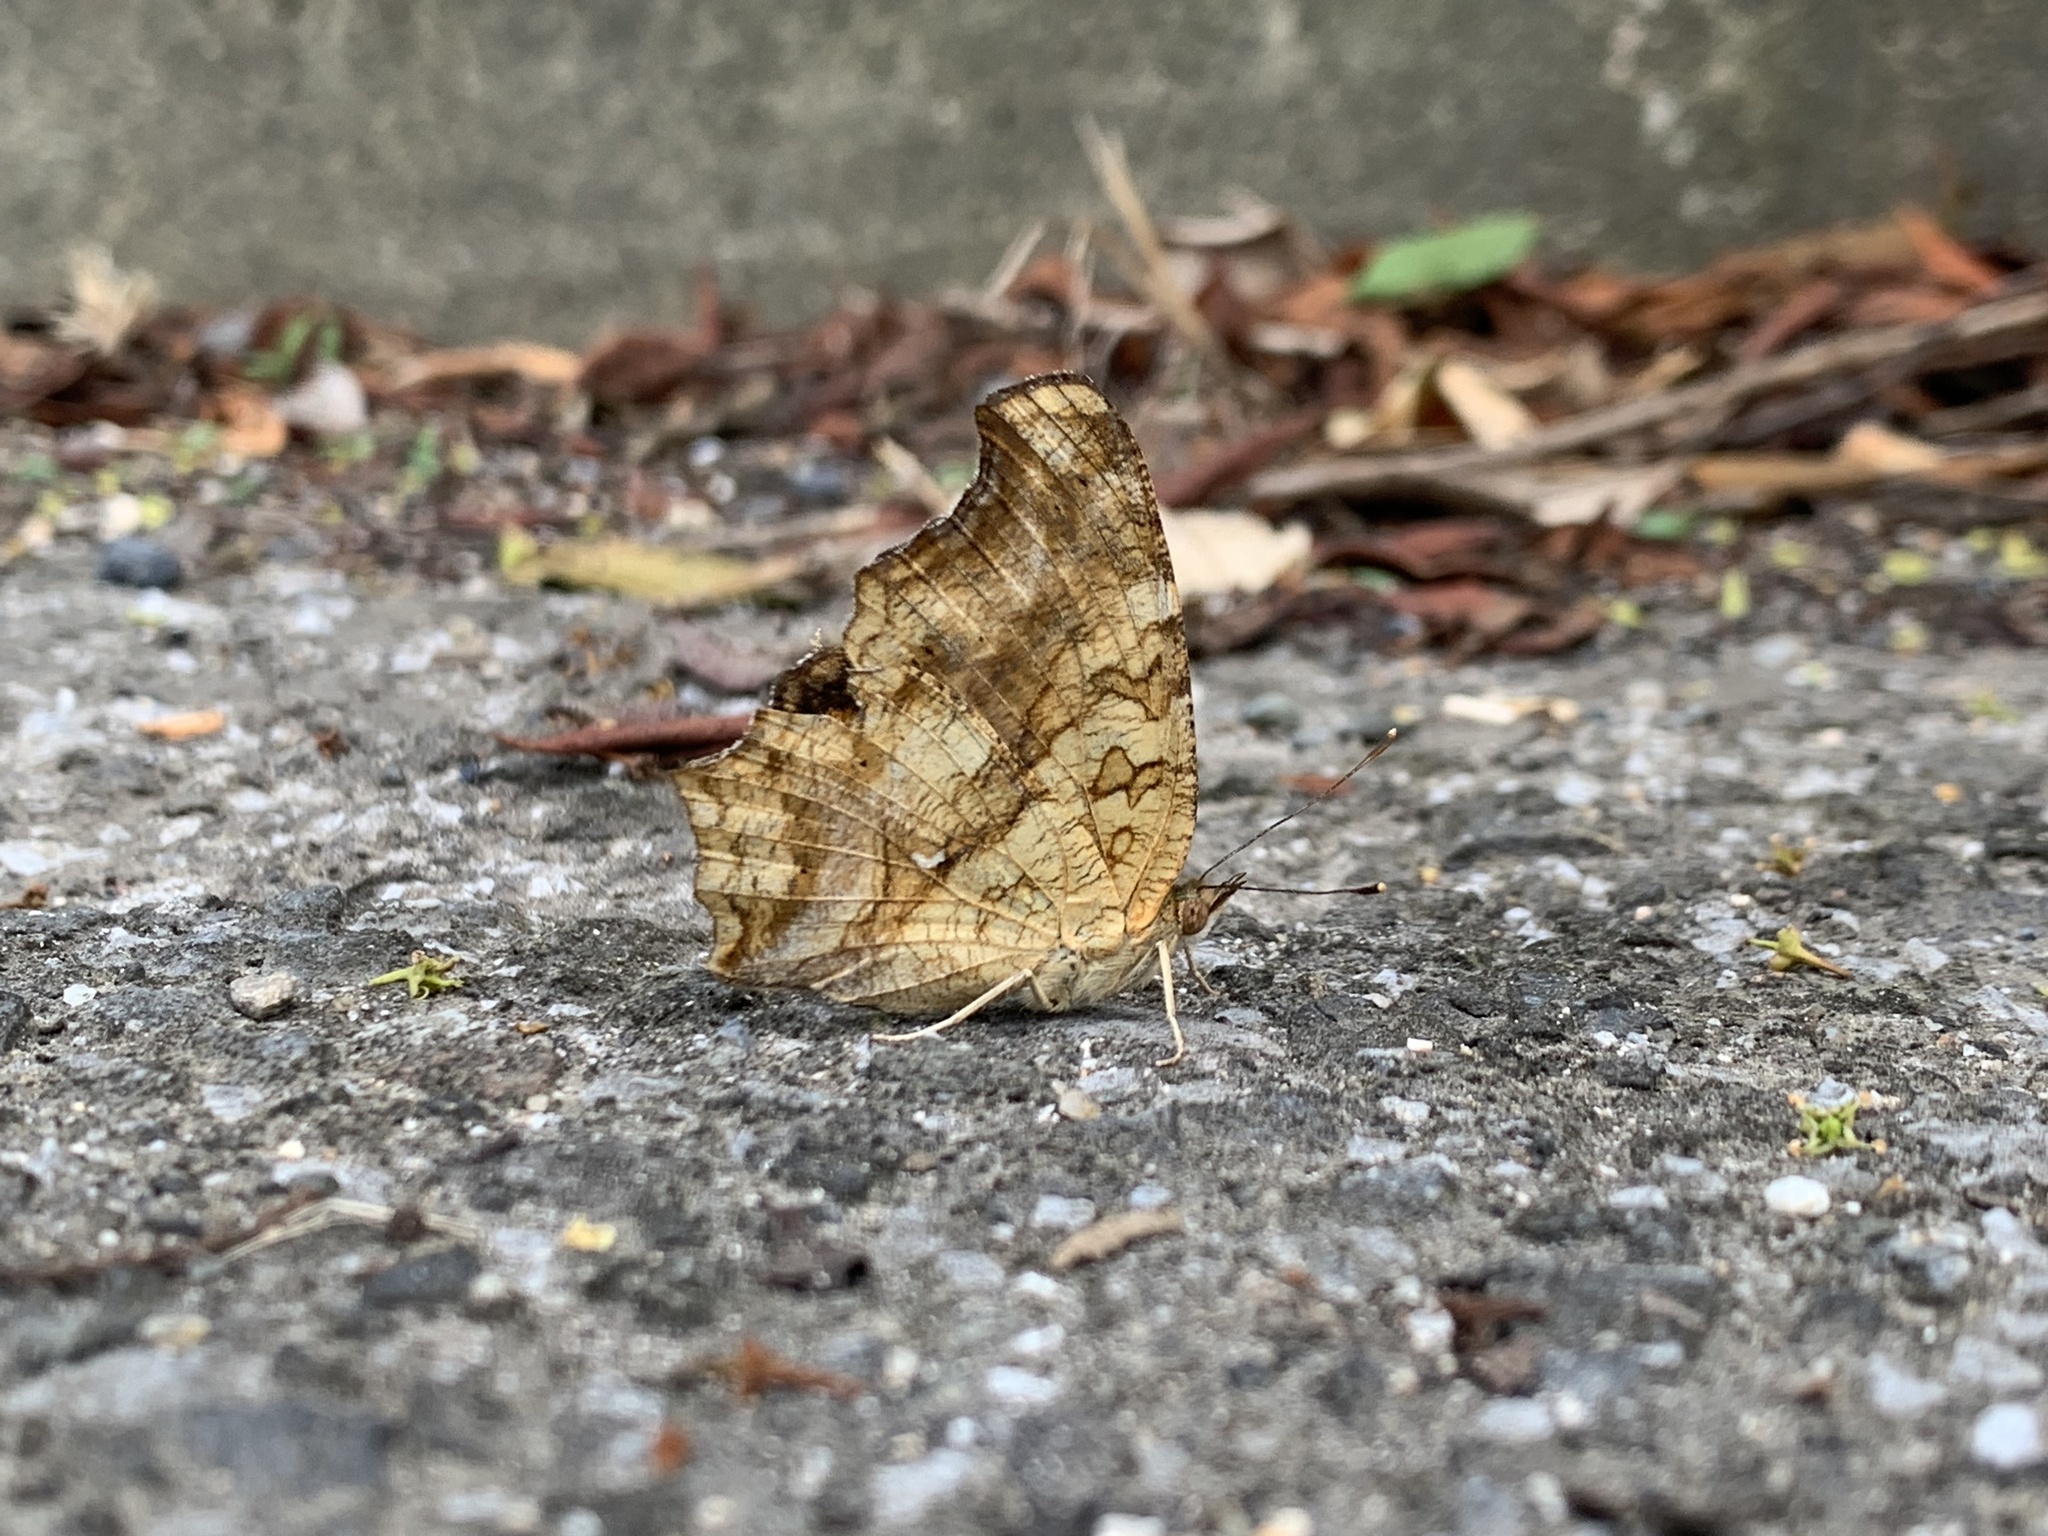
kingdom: Animalia
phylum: Arthropoda
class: Insecta
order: Lepidoptera
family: Nymphalidae
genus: Polygonia
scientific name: Polygonia c-aureum
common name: Asian comma
